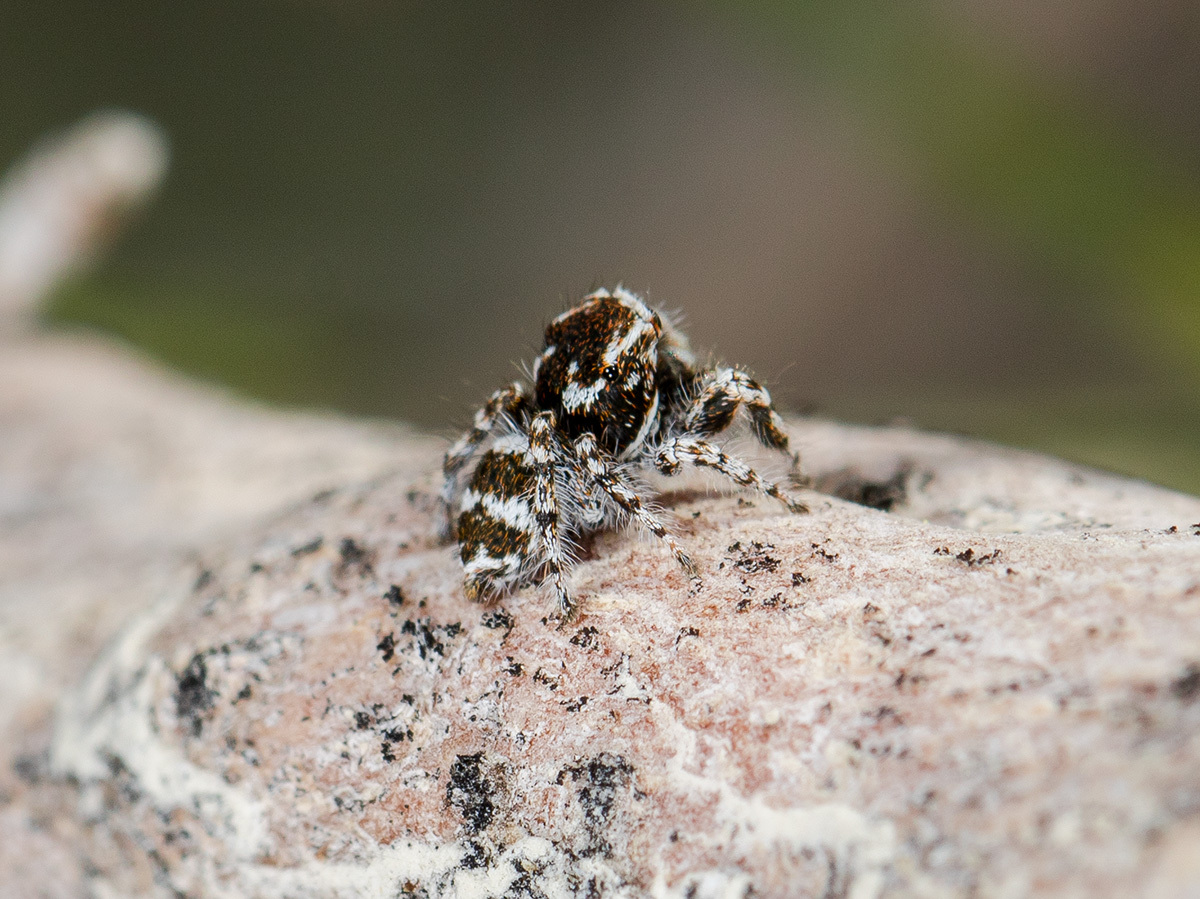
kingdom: Animalia
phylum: Arthropoda
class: Arachnida
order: Araneae
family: Salticidae
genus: Pseudomogrus
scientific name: Pseudomogrus albocinctus
